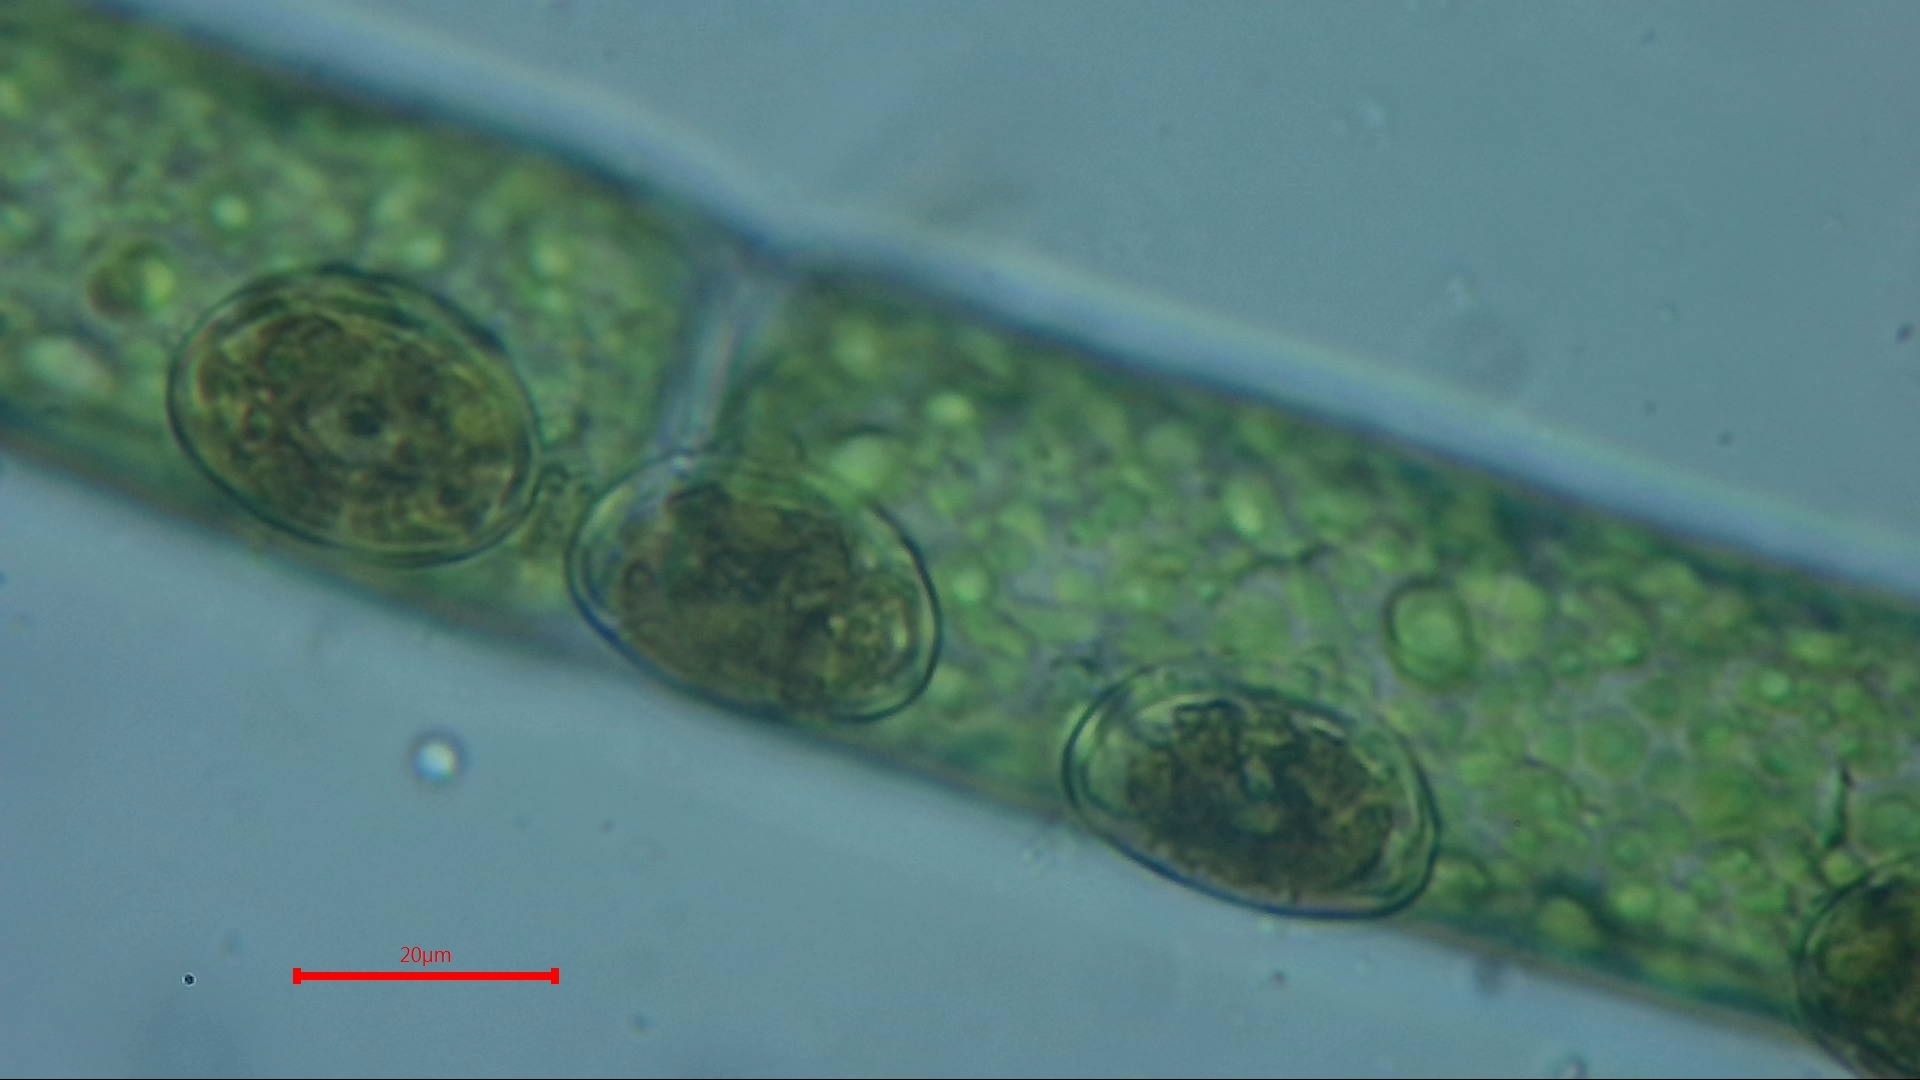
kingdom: Chromista
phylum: Ochrophyta
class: Bacillariophyceae
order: Achnanthales
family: Cocconeidaceae
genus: Cocconeis
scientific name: Cocconeis pediculus
